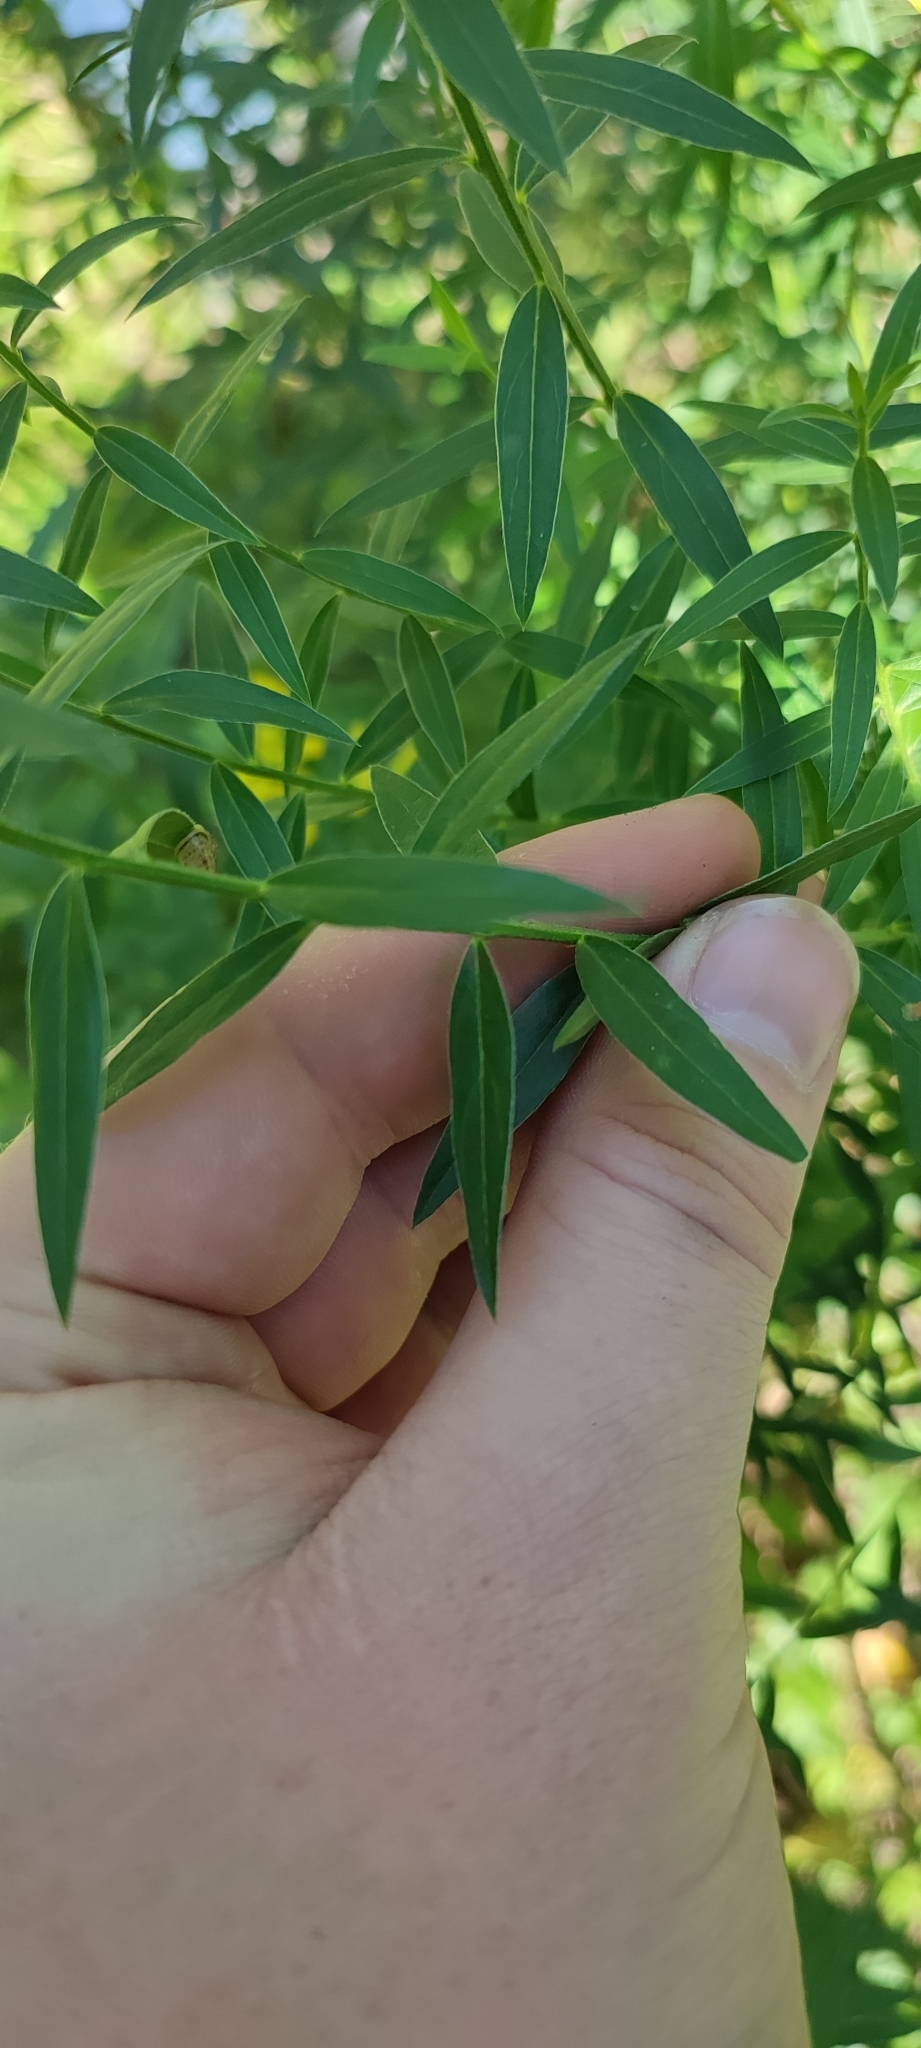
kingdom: Plantae
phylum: Tracheophyta
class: Magnoliopsida
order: Fabales
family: Fabaceae
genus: Genista
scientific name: Genista tinctoria
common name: Dyer's greenweed
